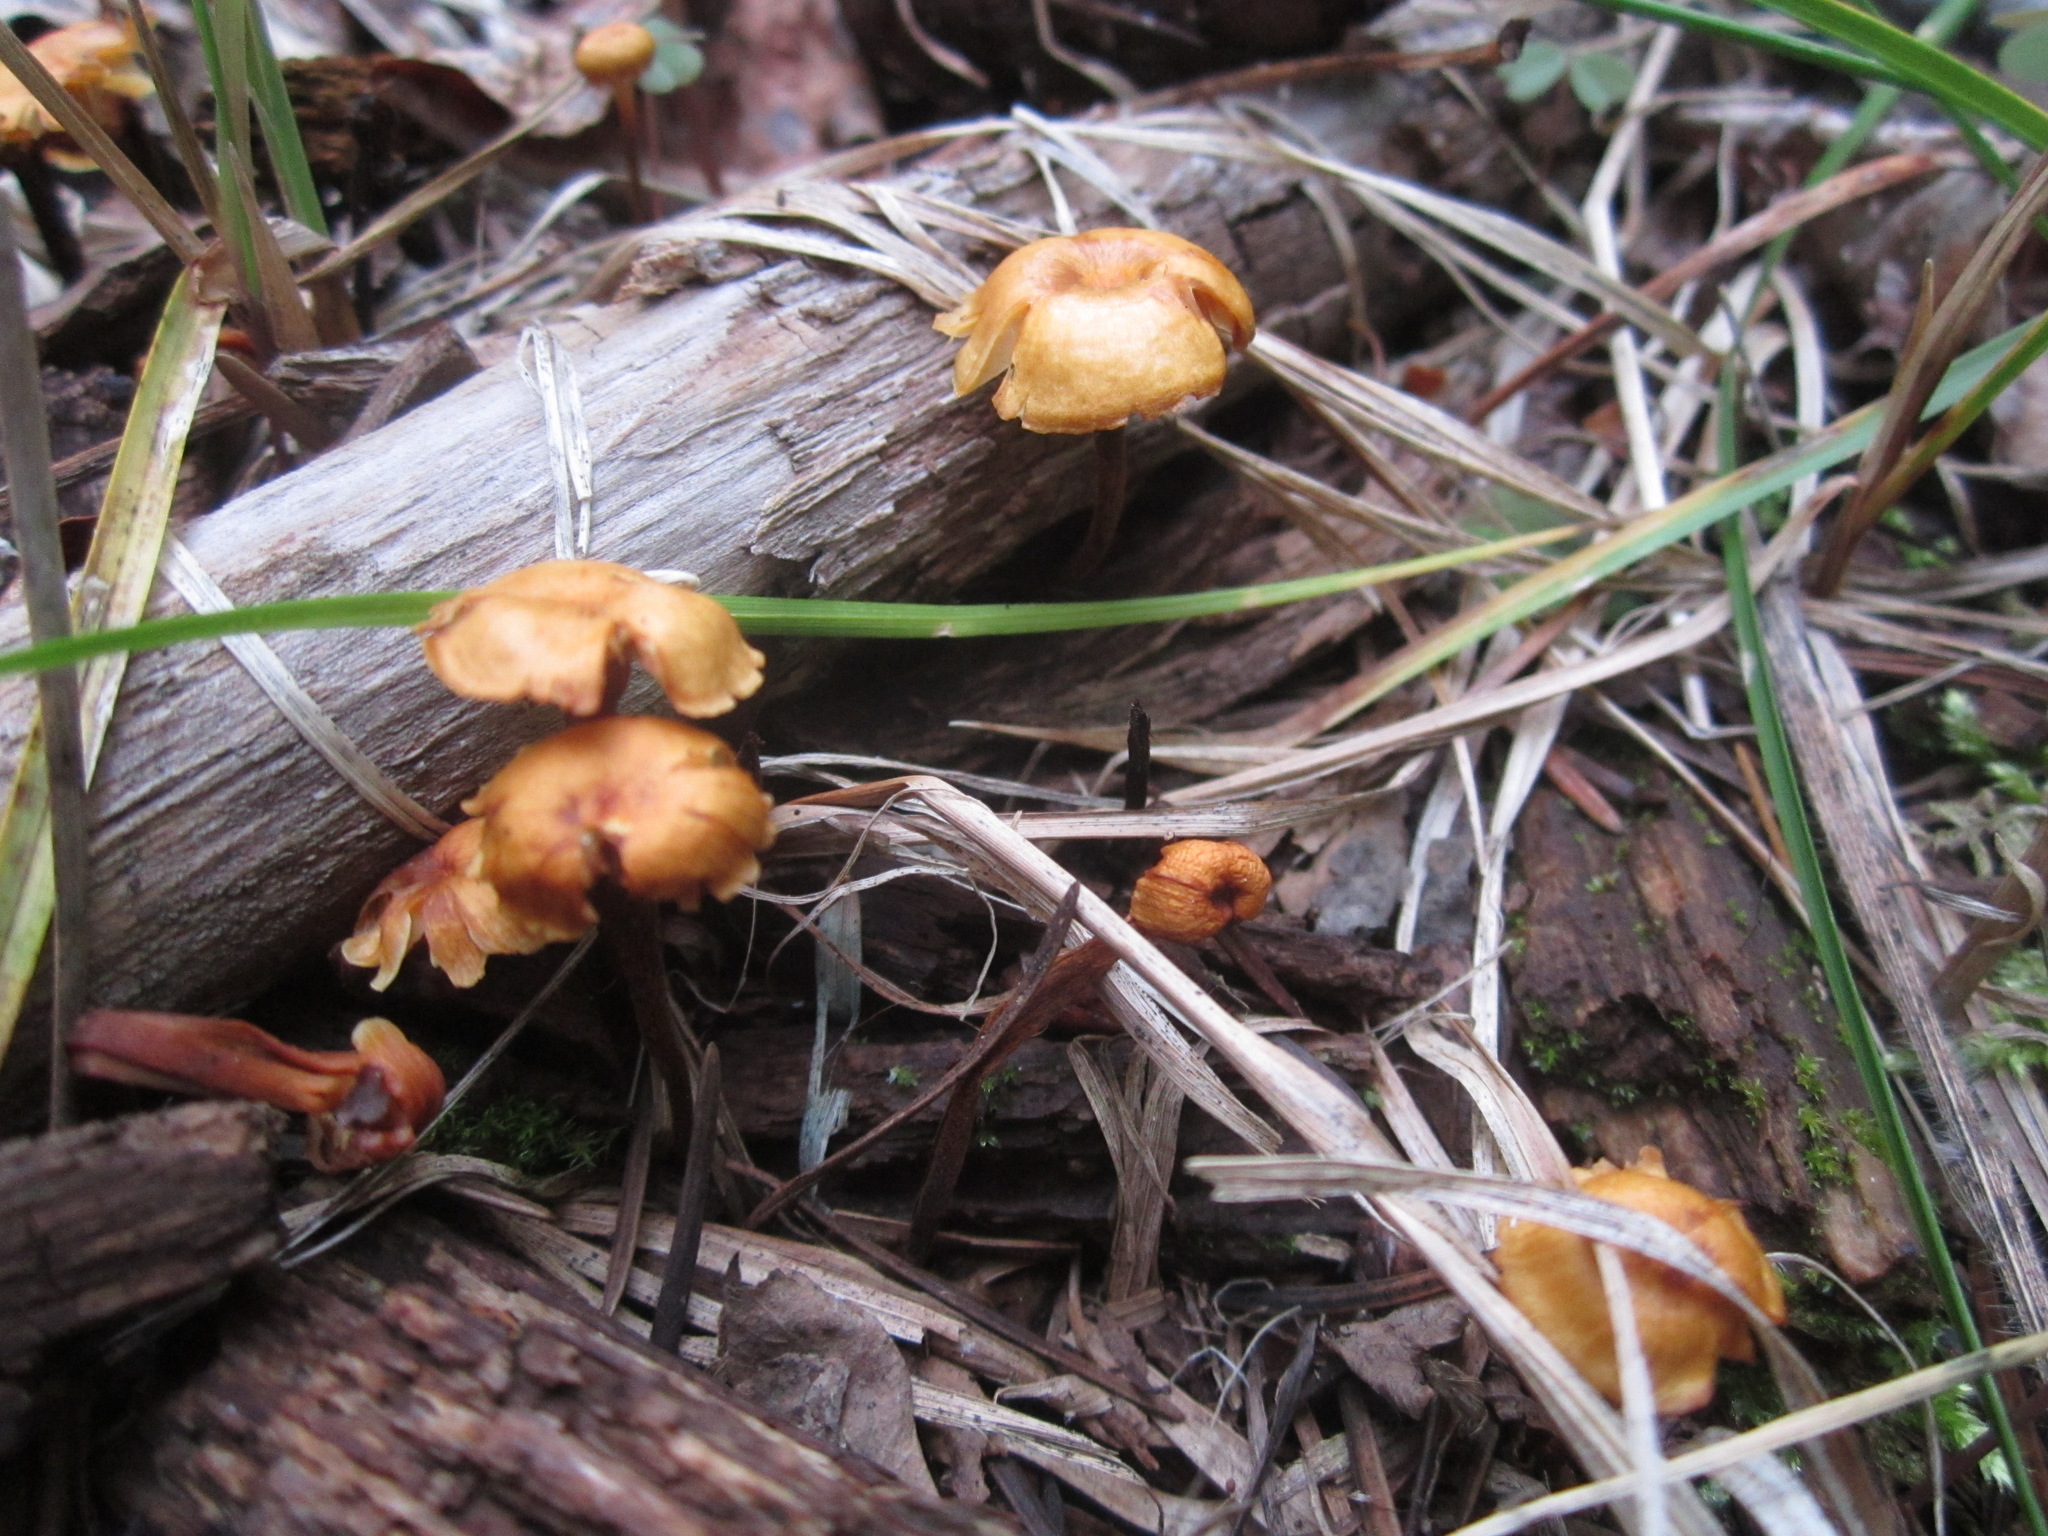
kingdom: Fungi
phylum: Basidiomycota
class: Agaricomycetes
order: Agaricales
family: Mycenaceae
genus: Xeromphalina
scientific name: Xeromphalina enigmatica
